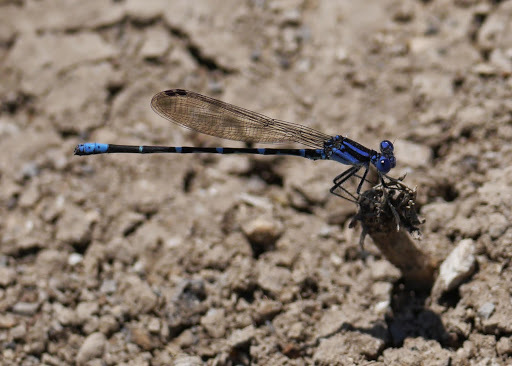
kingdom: Animalia
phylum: Arthropoda
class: Insecta
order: Odonata
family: Coenagrionidae
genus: Argia
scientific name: Argia sedula
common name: Blue-ringed dancer
